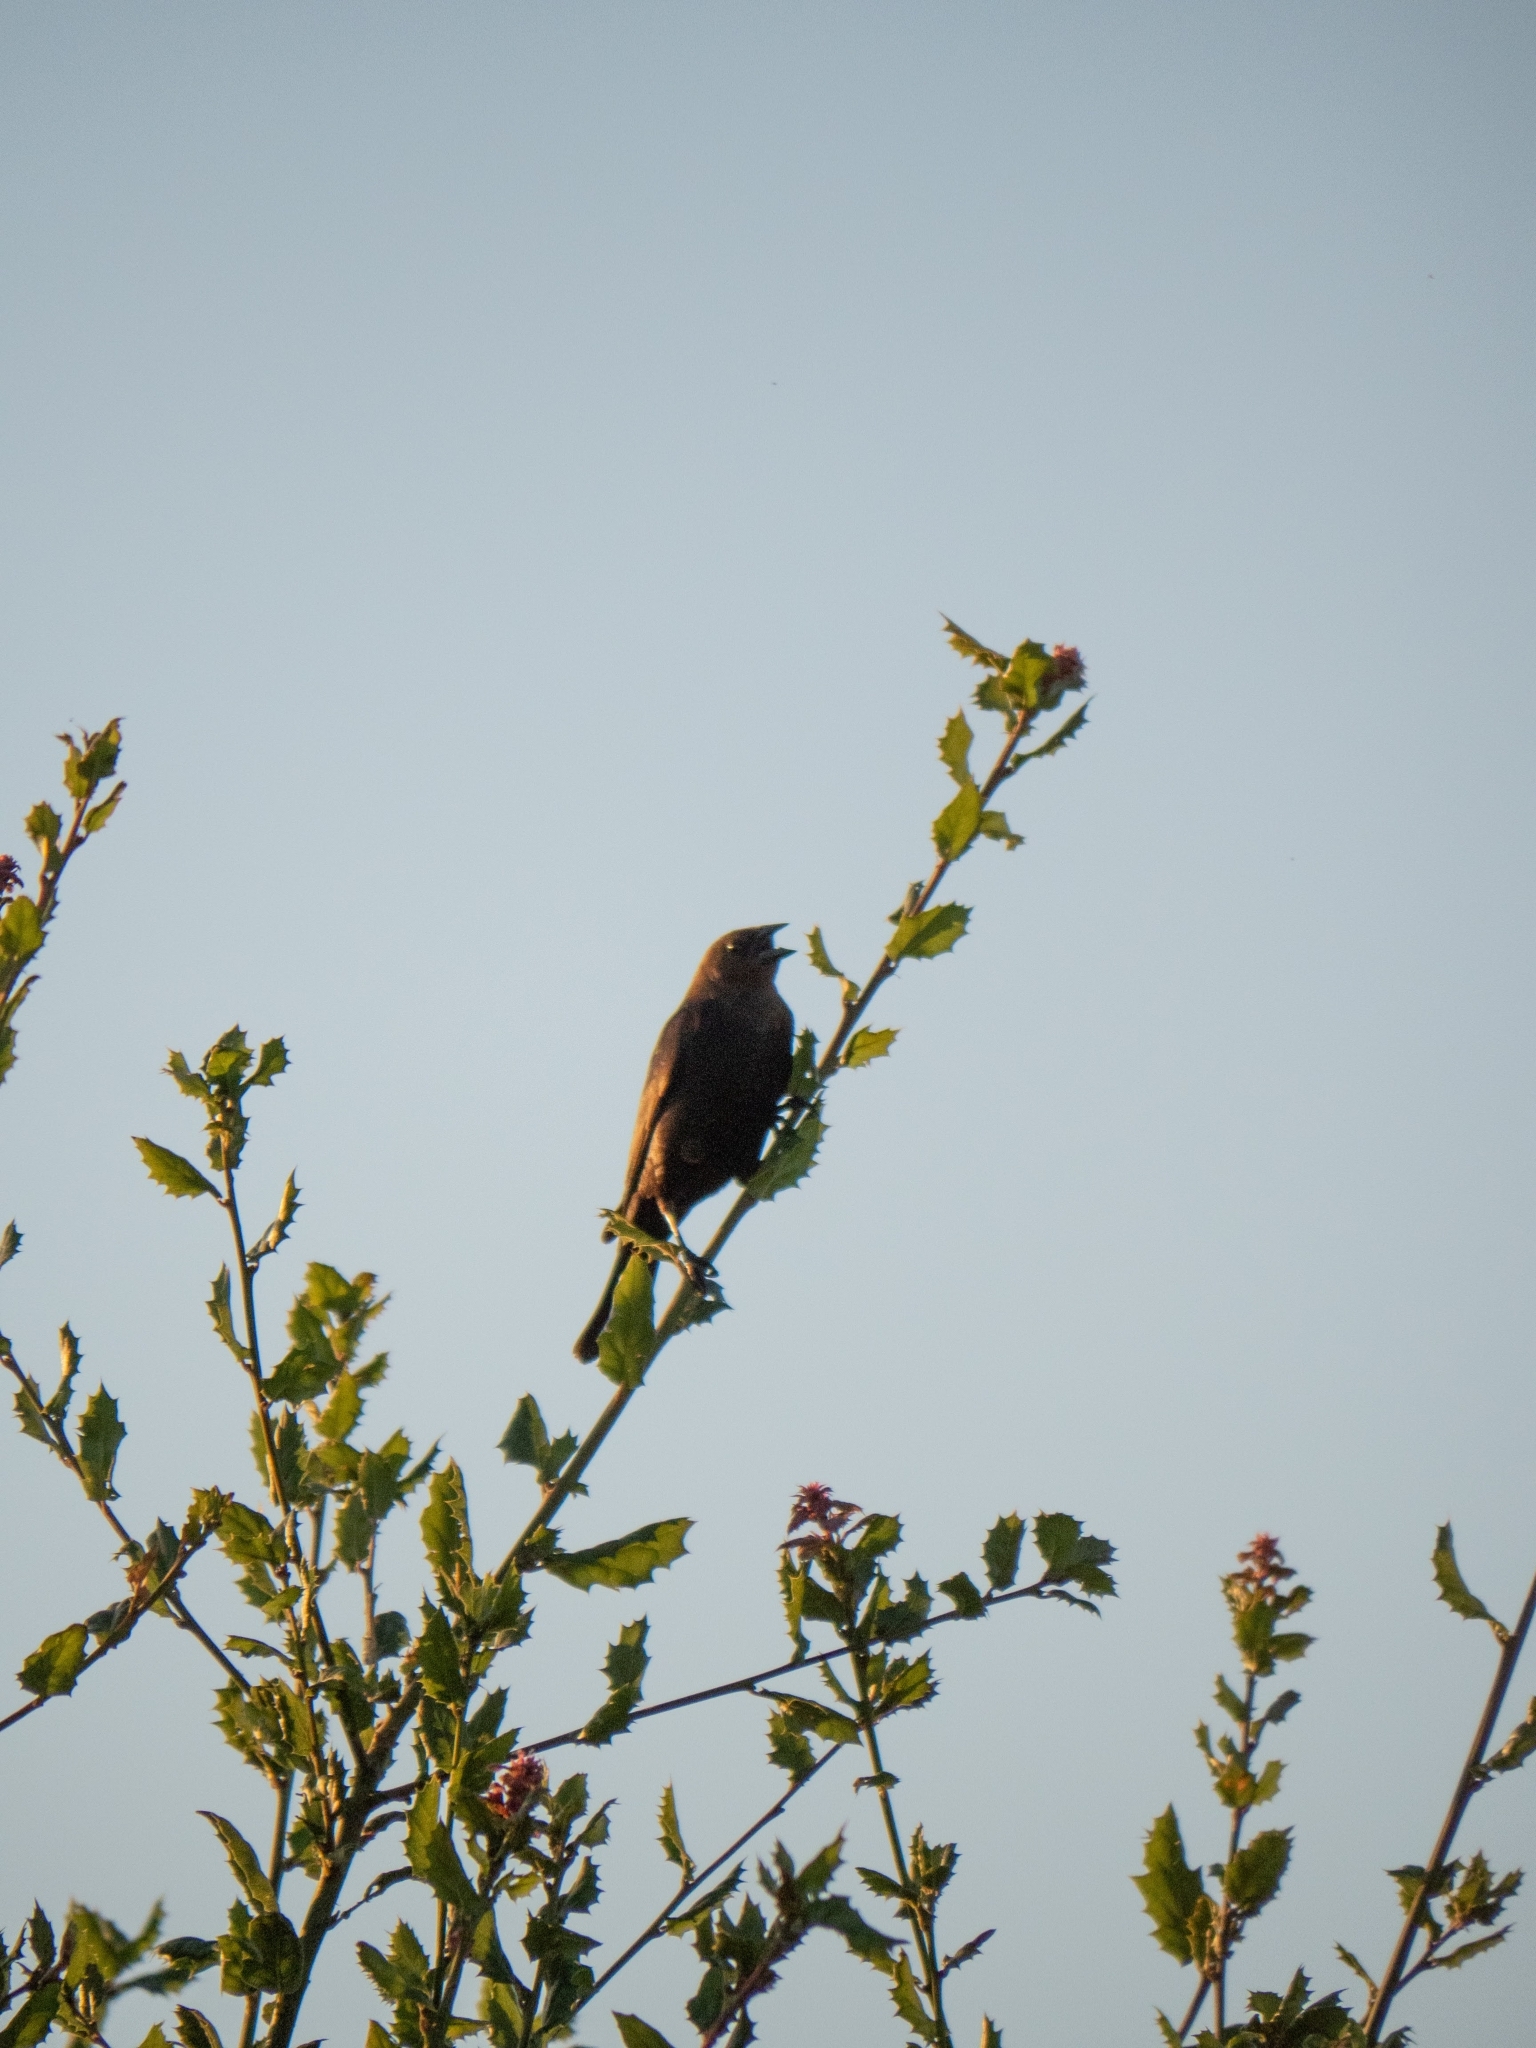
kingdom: Animalia
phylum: Chordata
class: Aves
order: Passeriformes
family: Icteridae
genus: Molothrus
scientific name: Molothrus ater
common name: Brown-headed cowbird
